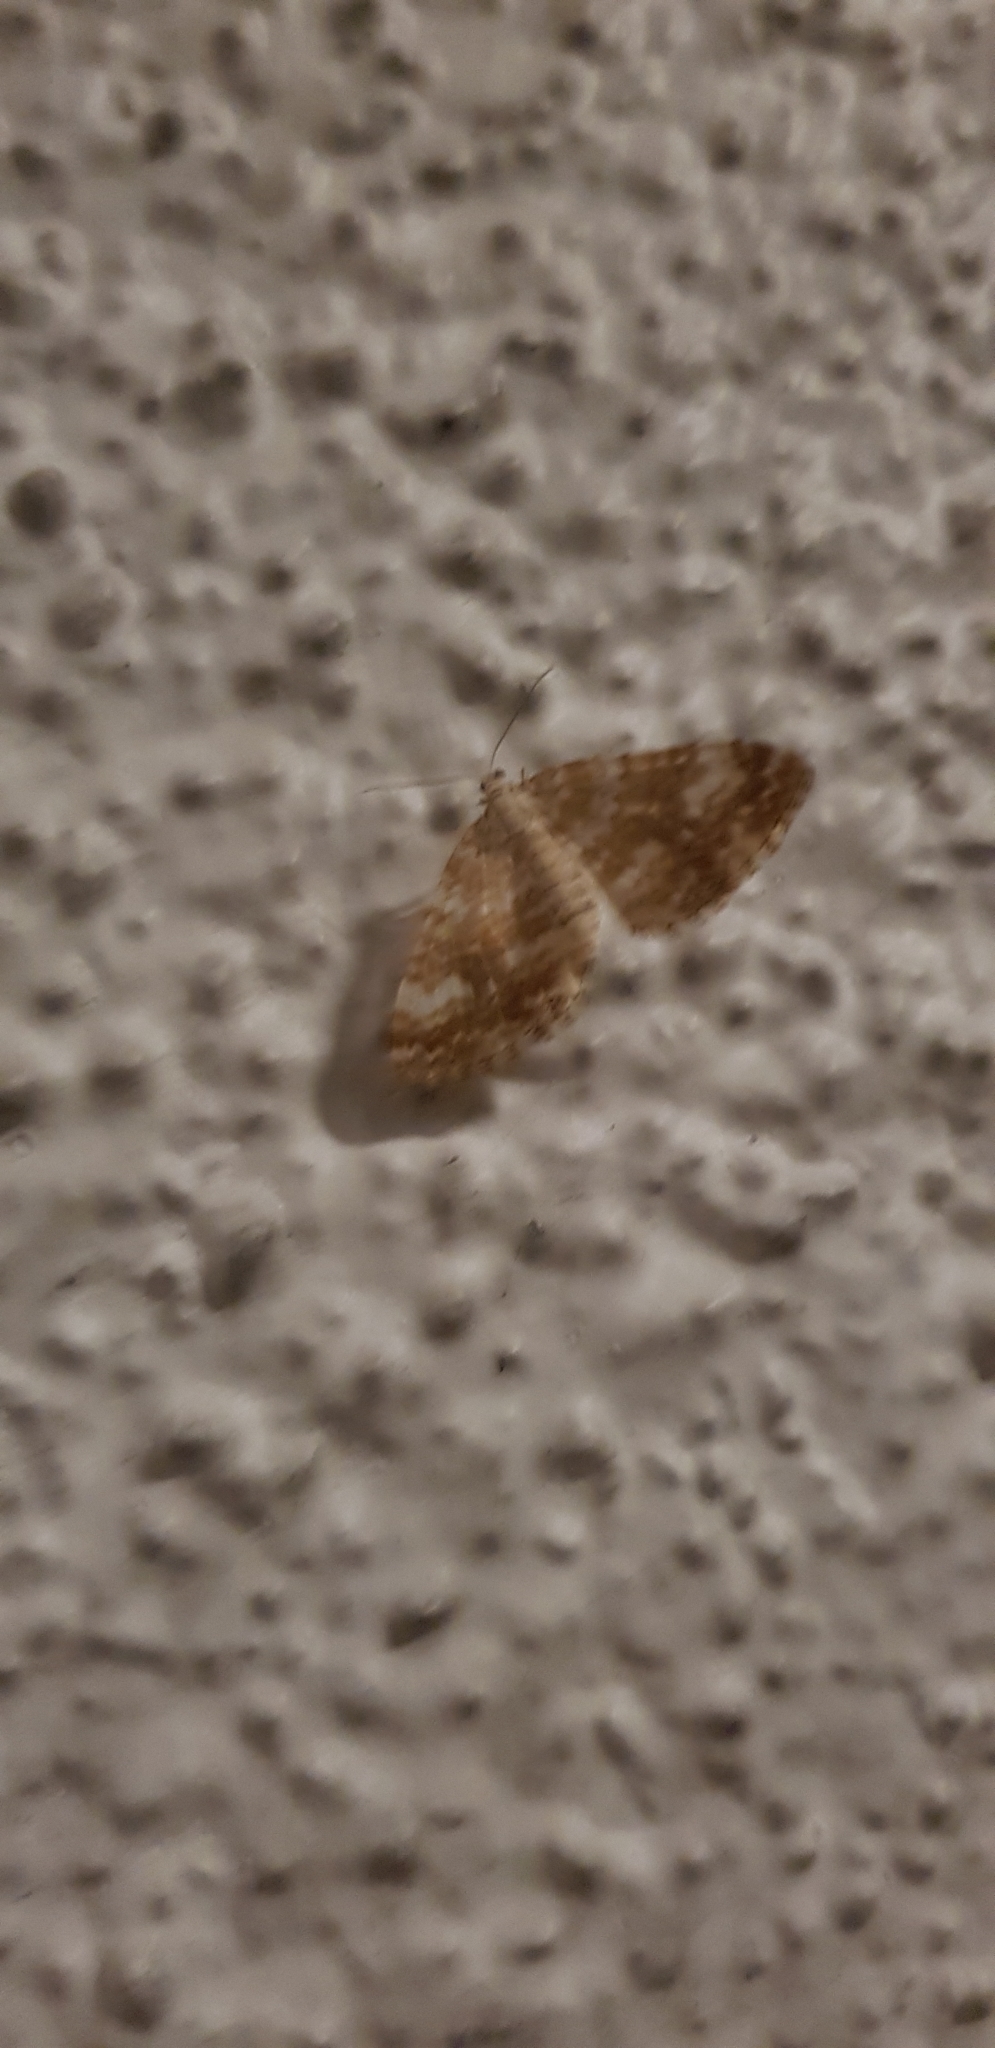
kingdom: Animalia
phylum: Arthropoda
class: Insecta
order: Lepidoptera
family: Geometridae
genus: Perizoma
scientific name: Perizoma flavofasciata
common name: Sandy carpet
